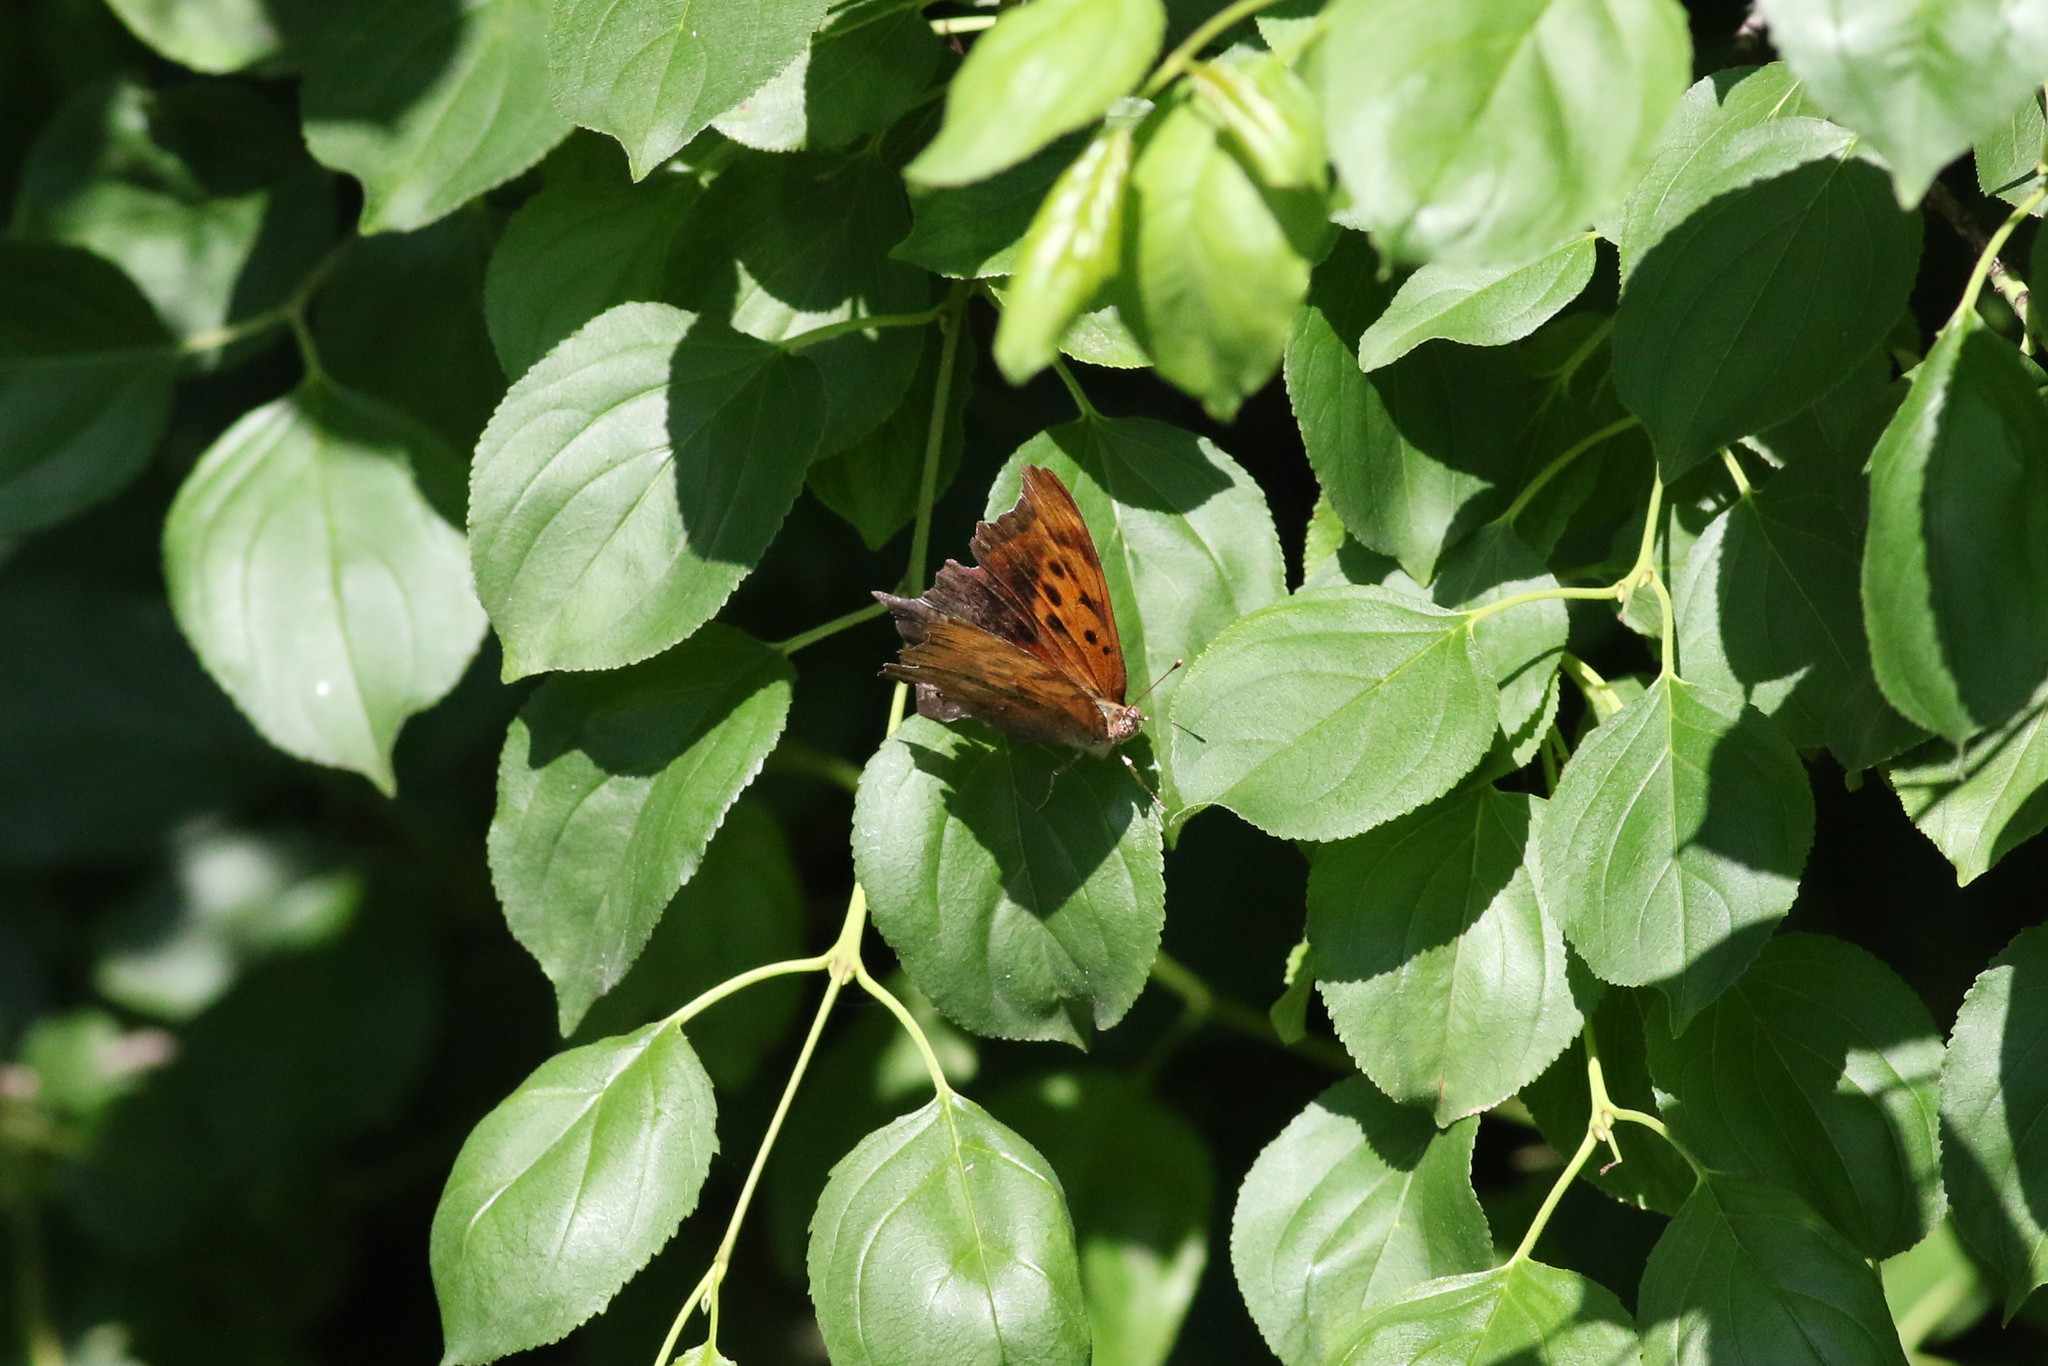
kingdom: Animalia
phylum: Arthropoda
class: Insecta
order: Lepidoptera
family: Nymphalidae
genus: Polygonia
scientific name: Polygonia interrogationis
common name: Question mark
